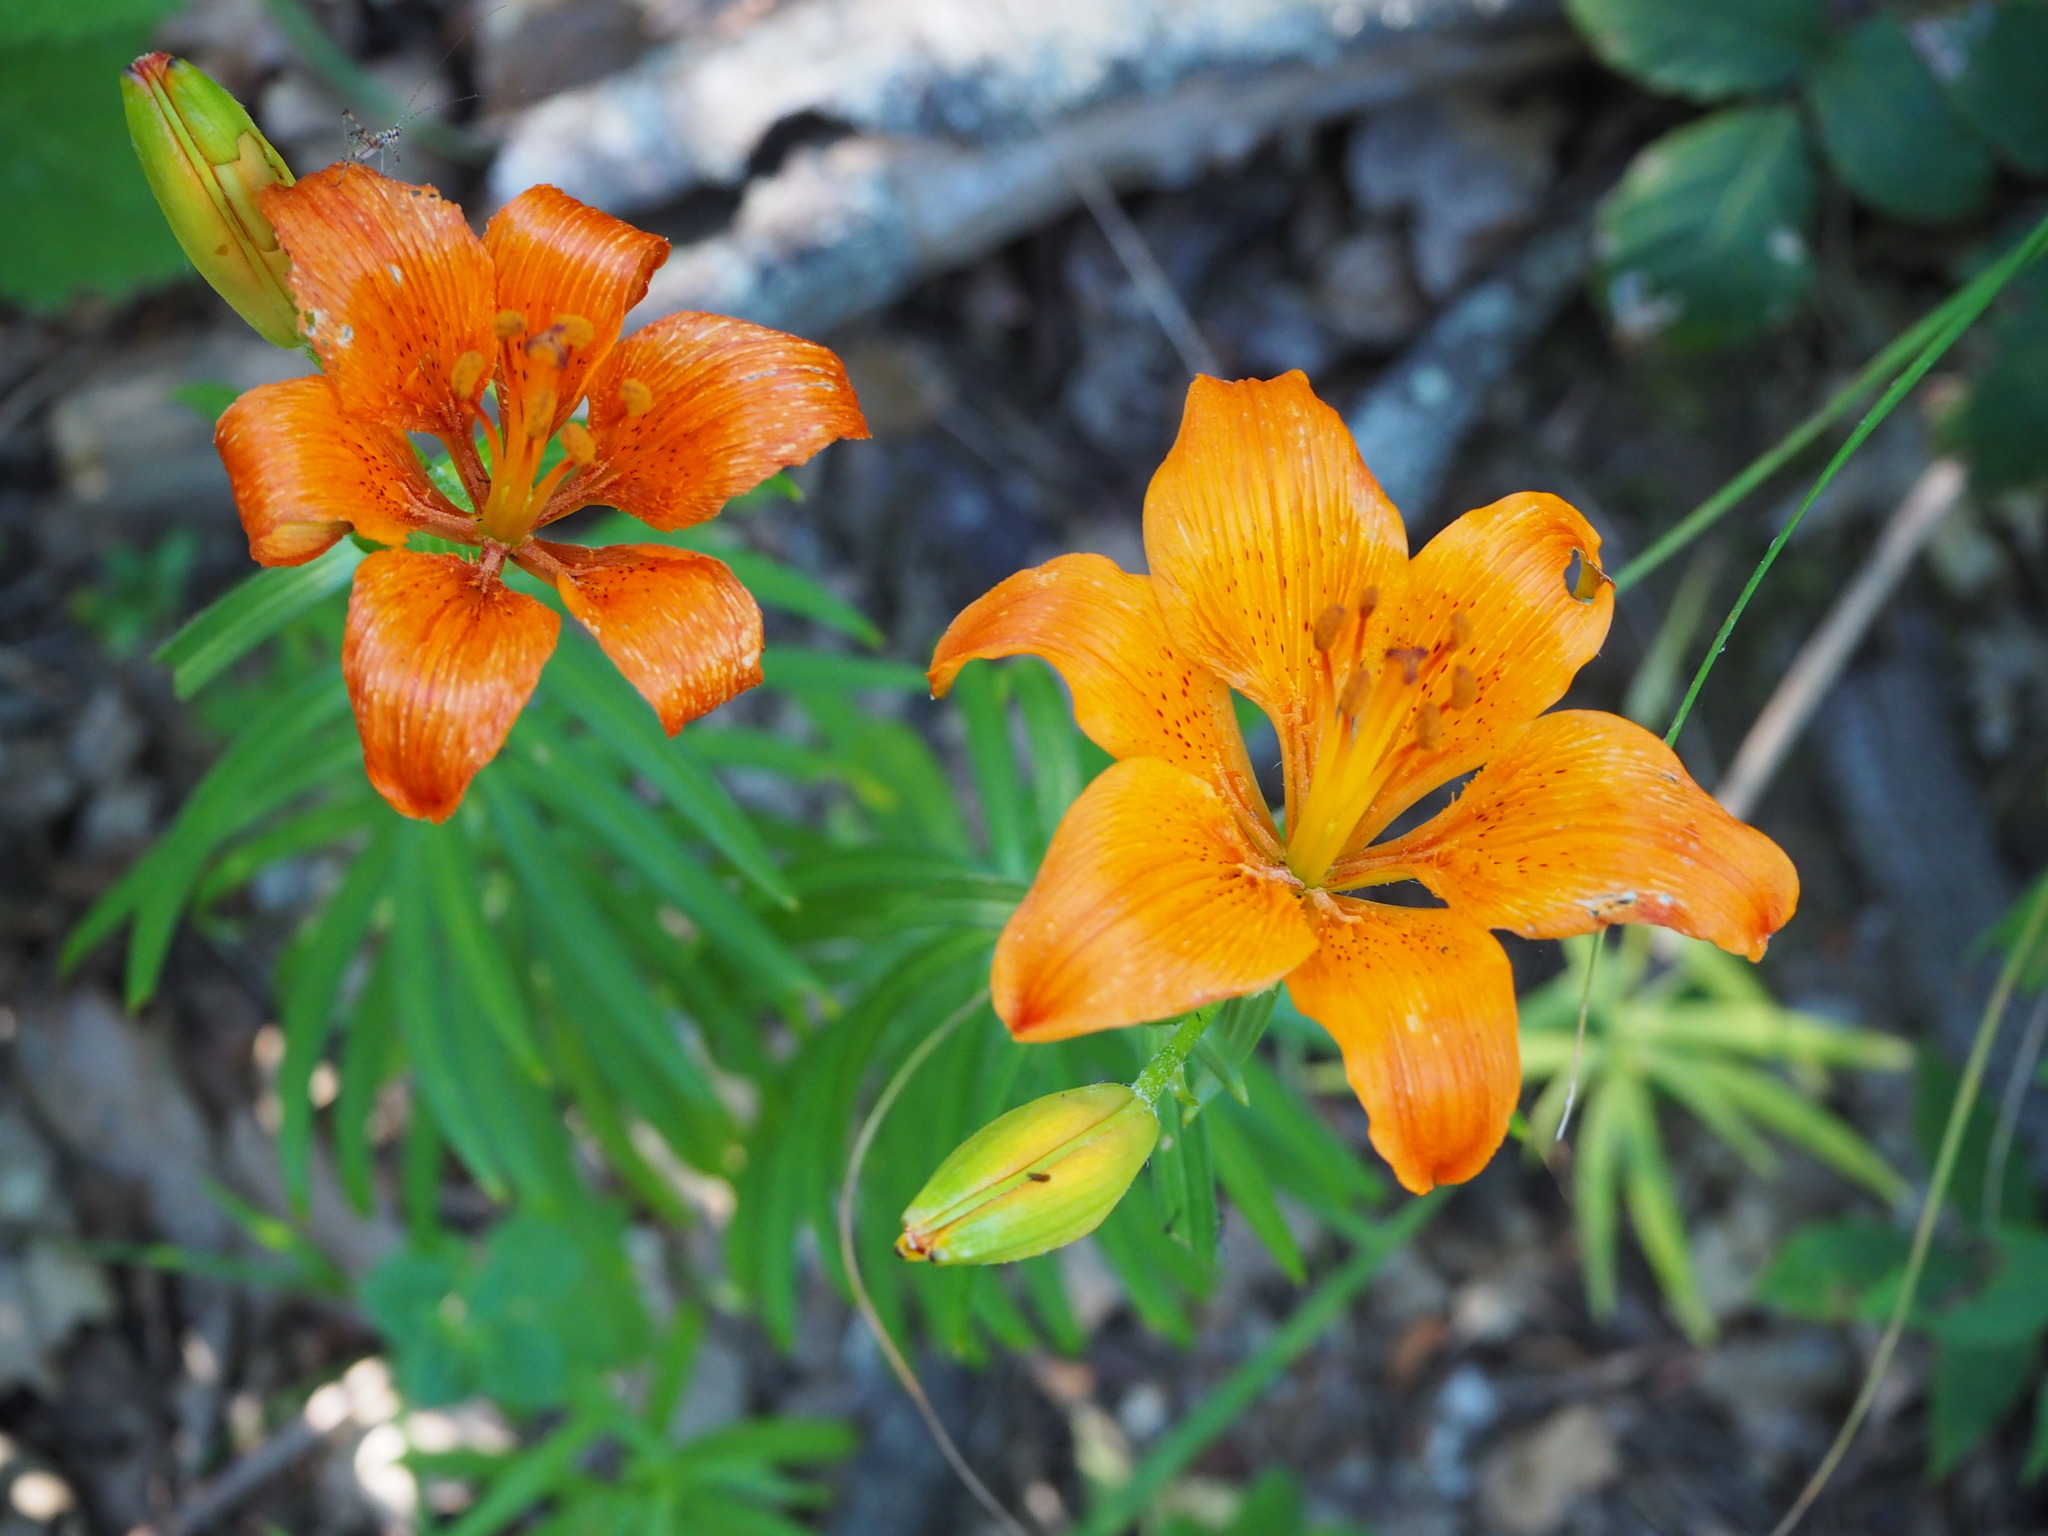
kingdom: Plantae
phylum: Tracheophyta
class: Liliopsida
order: Liliales
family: Liliaceae
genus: Lilium
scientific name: Lilium bulbiferum
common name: Orange lily
